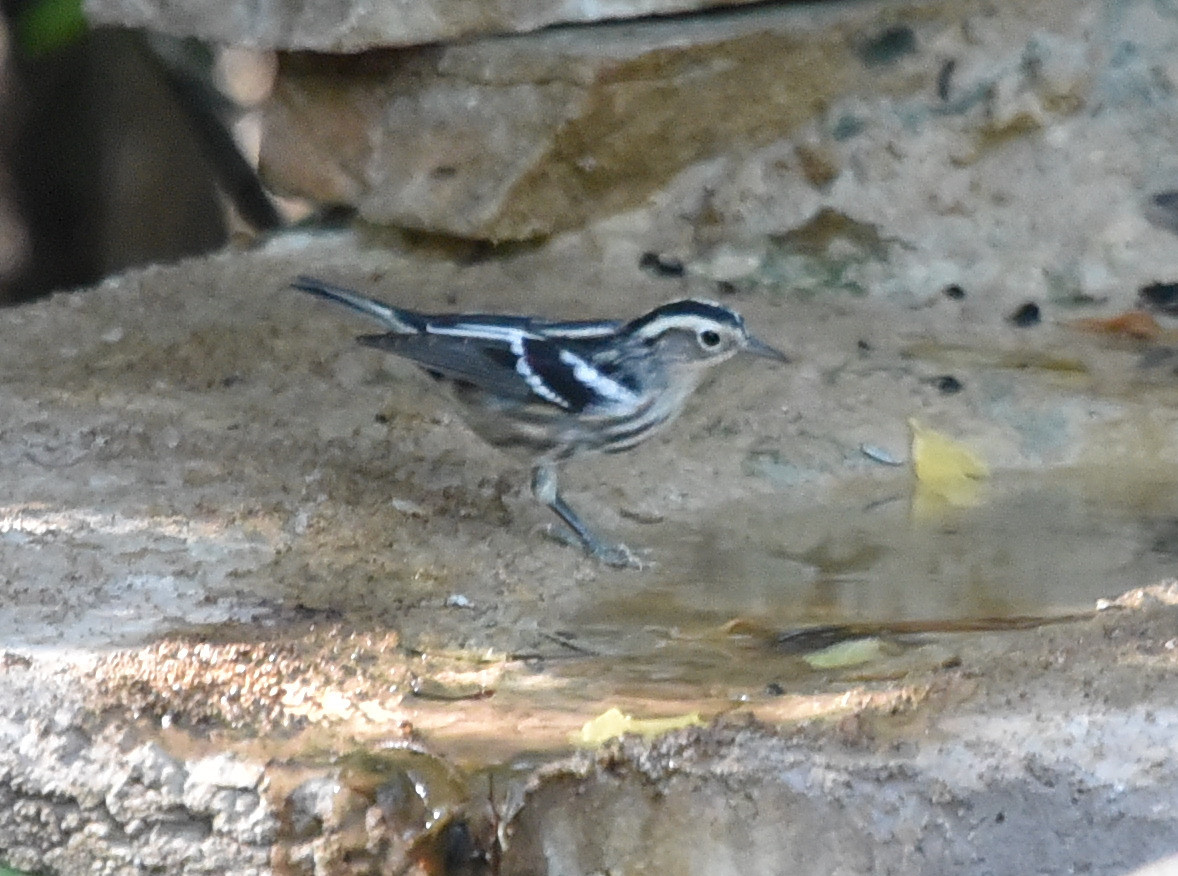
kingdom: Animalia
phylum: Chordata
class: Aves
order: Passeriformes
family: Parulidae
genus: Mniotilta
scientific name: Mniotilta varia
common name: Black-and-white warbler
